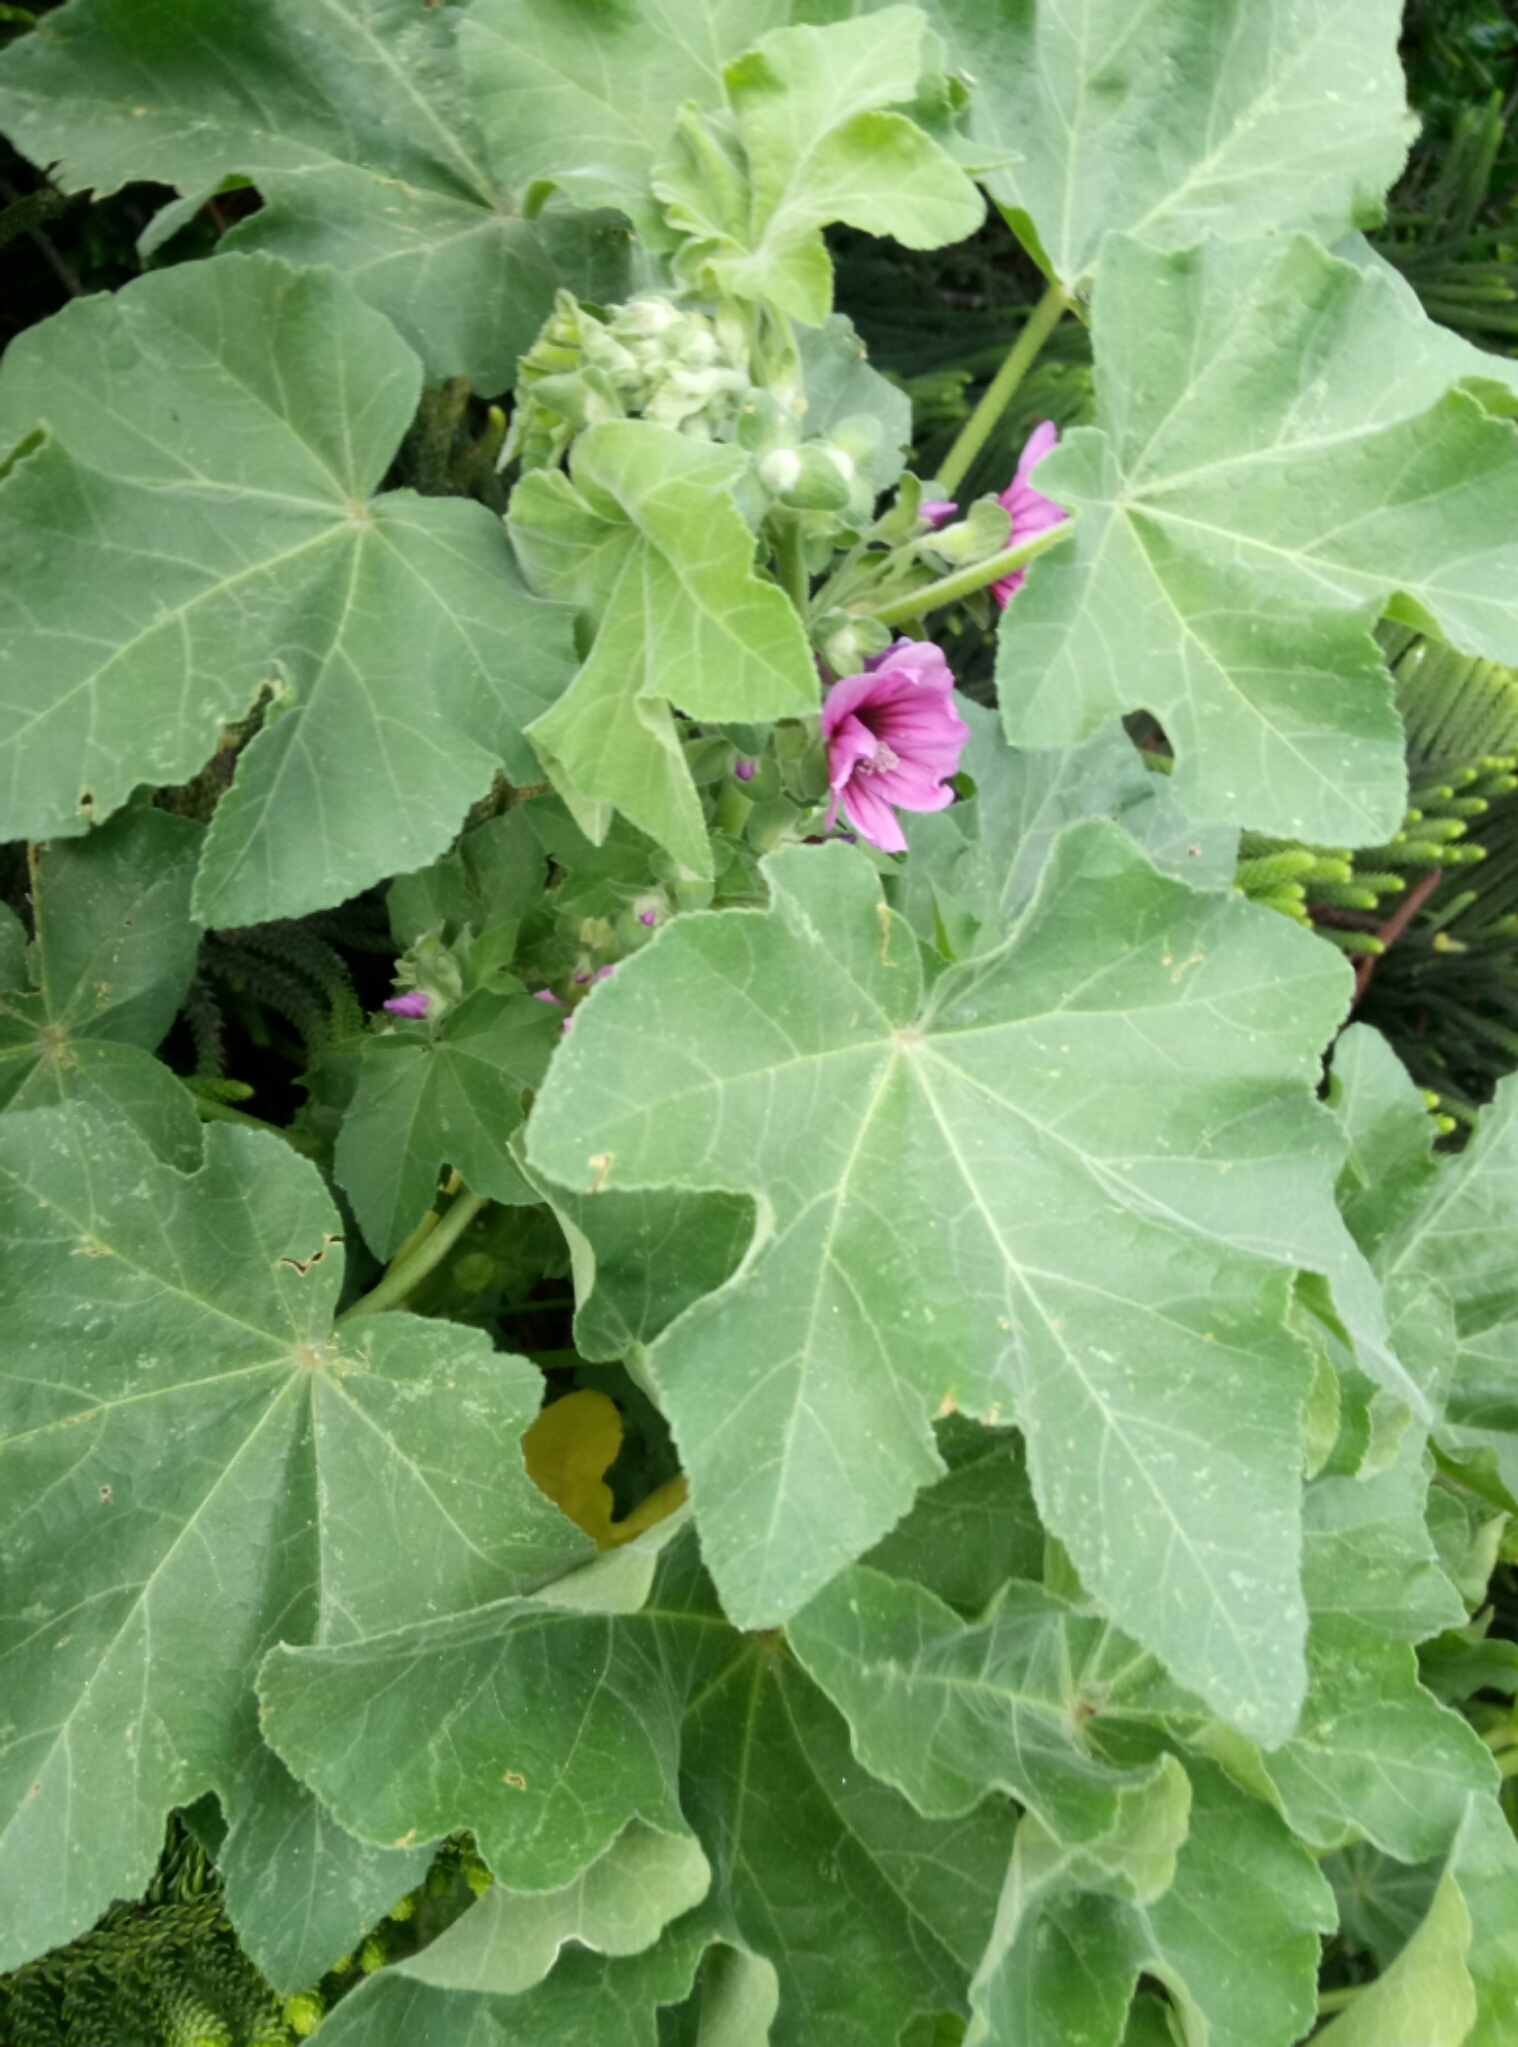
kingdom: Plantae
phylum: Tracheophyta
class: Magnoliopsida
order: Malvales
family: Malvaceae
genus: Malva
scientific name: Malva arborea
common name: Tree mallow
